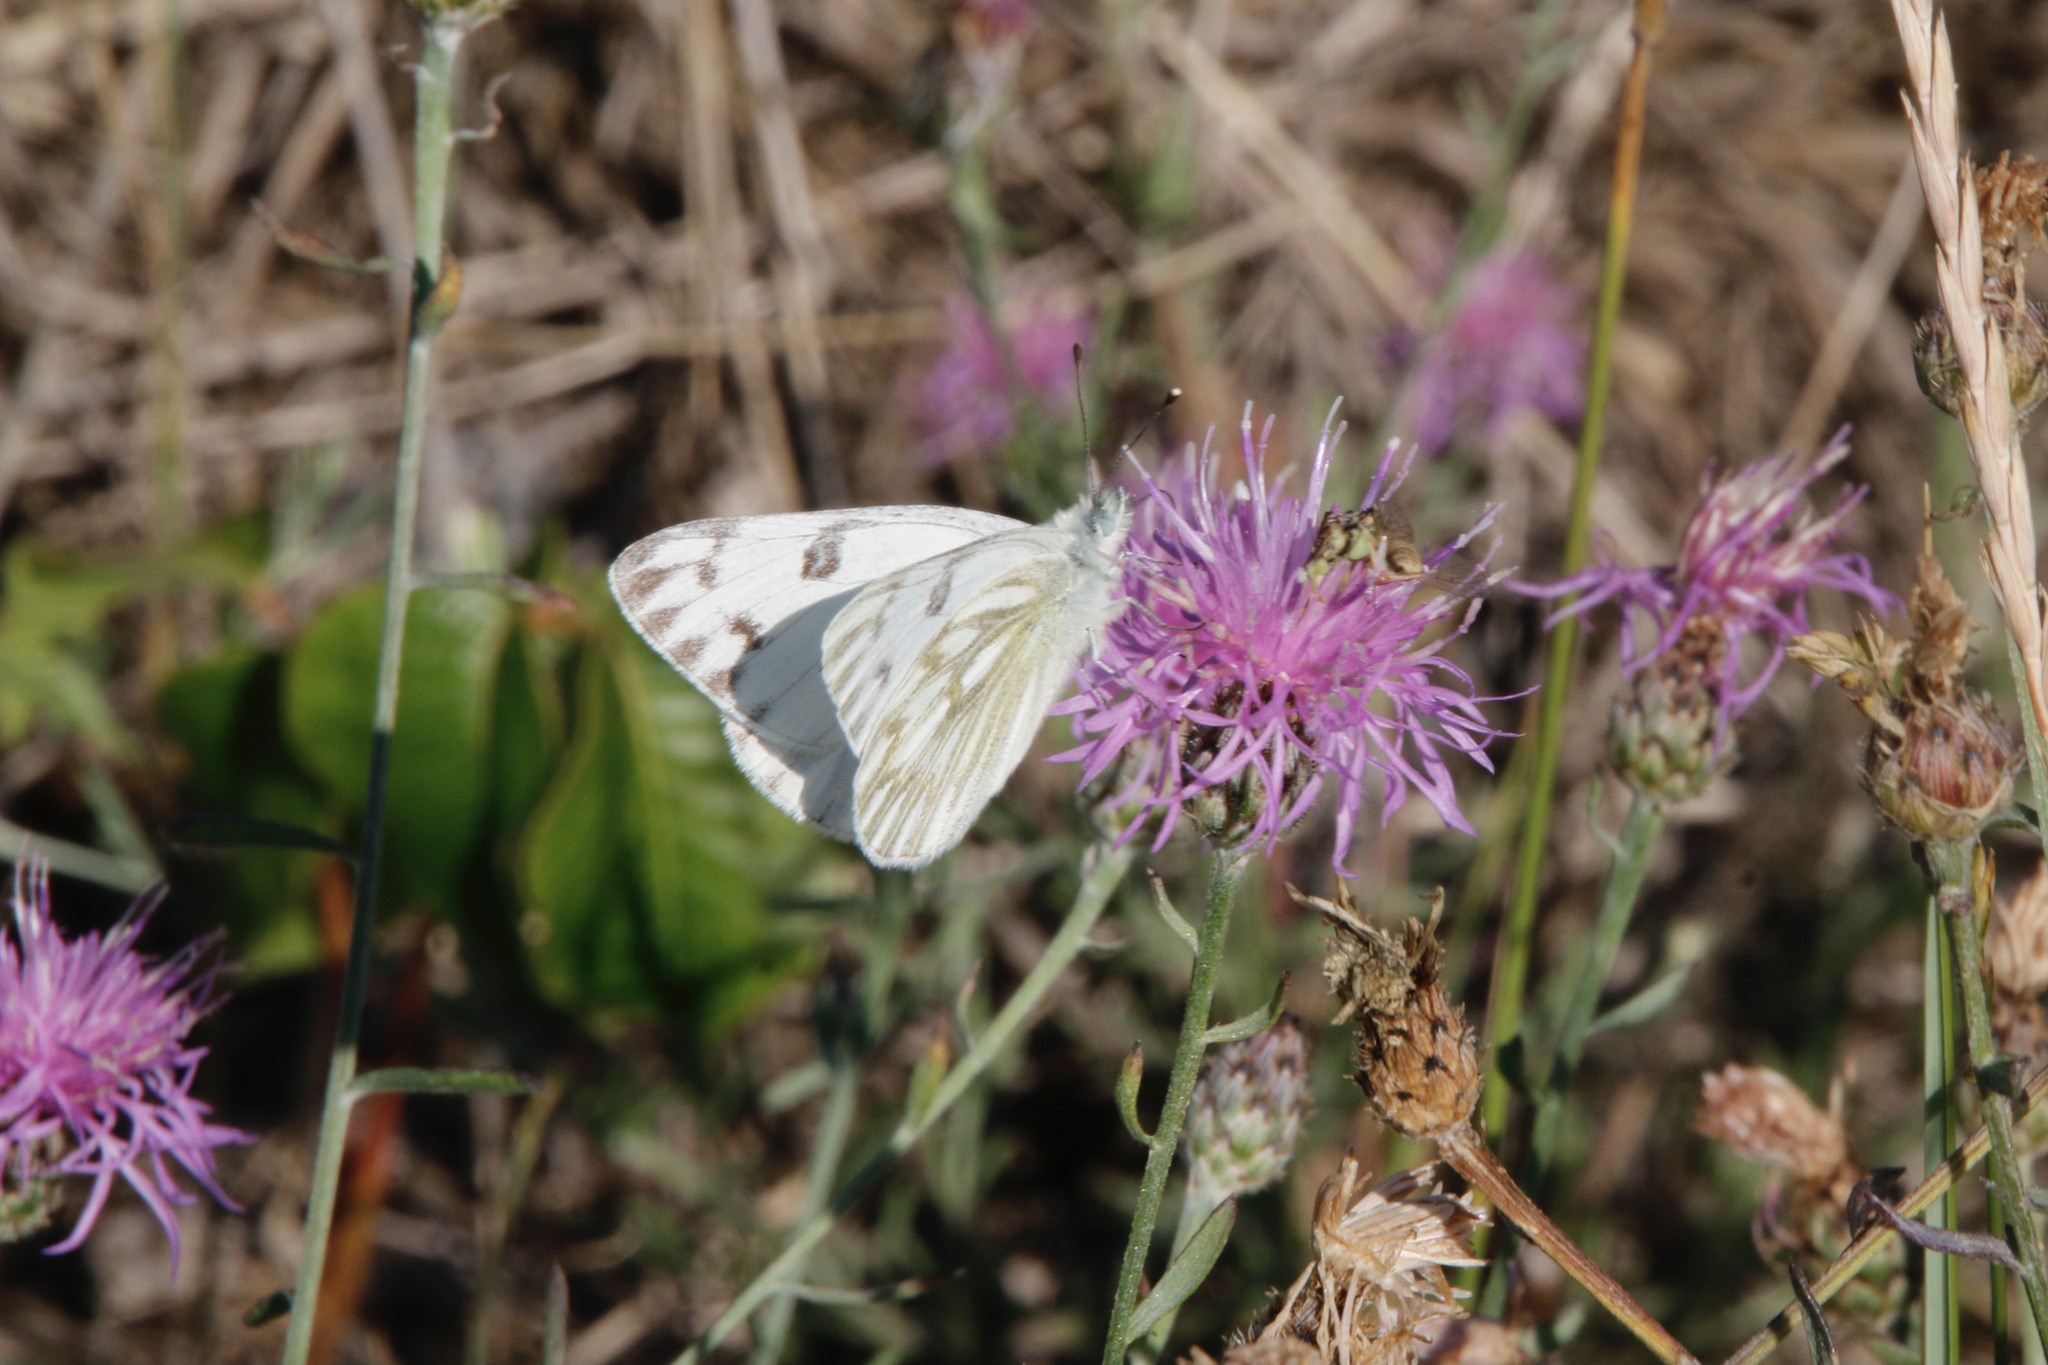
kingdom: Animalia
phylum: Arthropoda
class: Insecta
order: Lepidoptera
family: Pieridae
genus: Pontia
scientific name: Pontia occidentalis
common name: Western white
